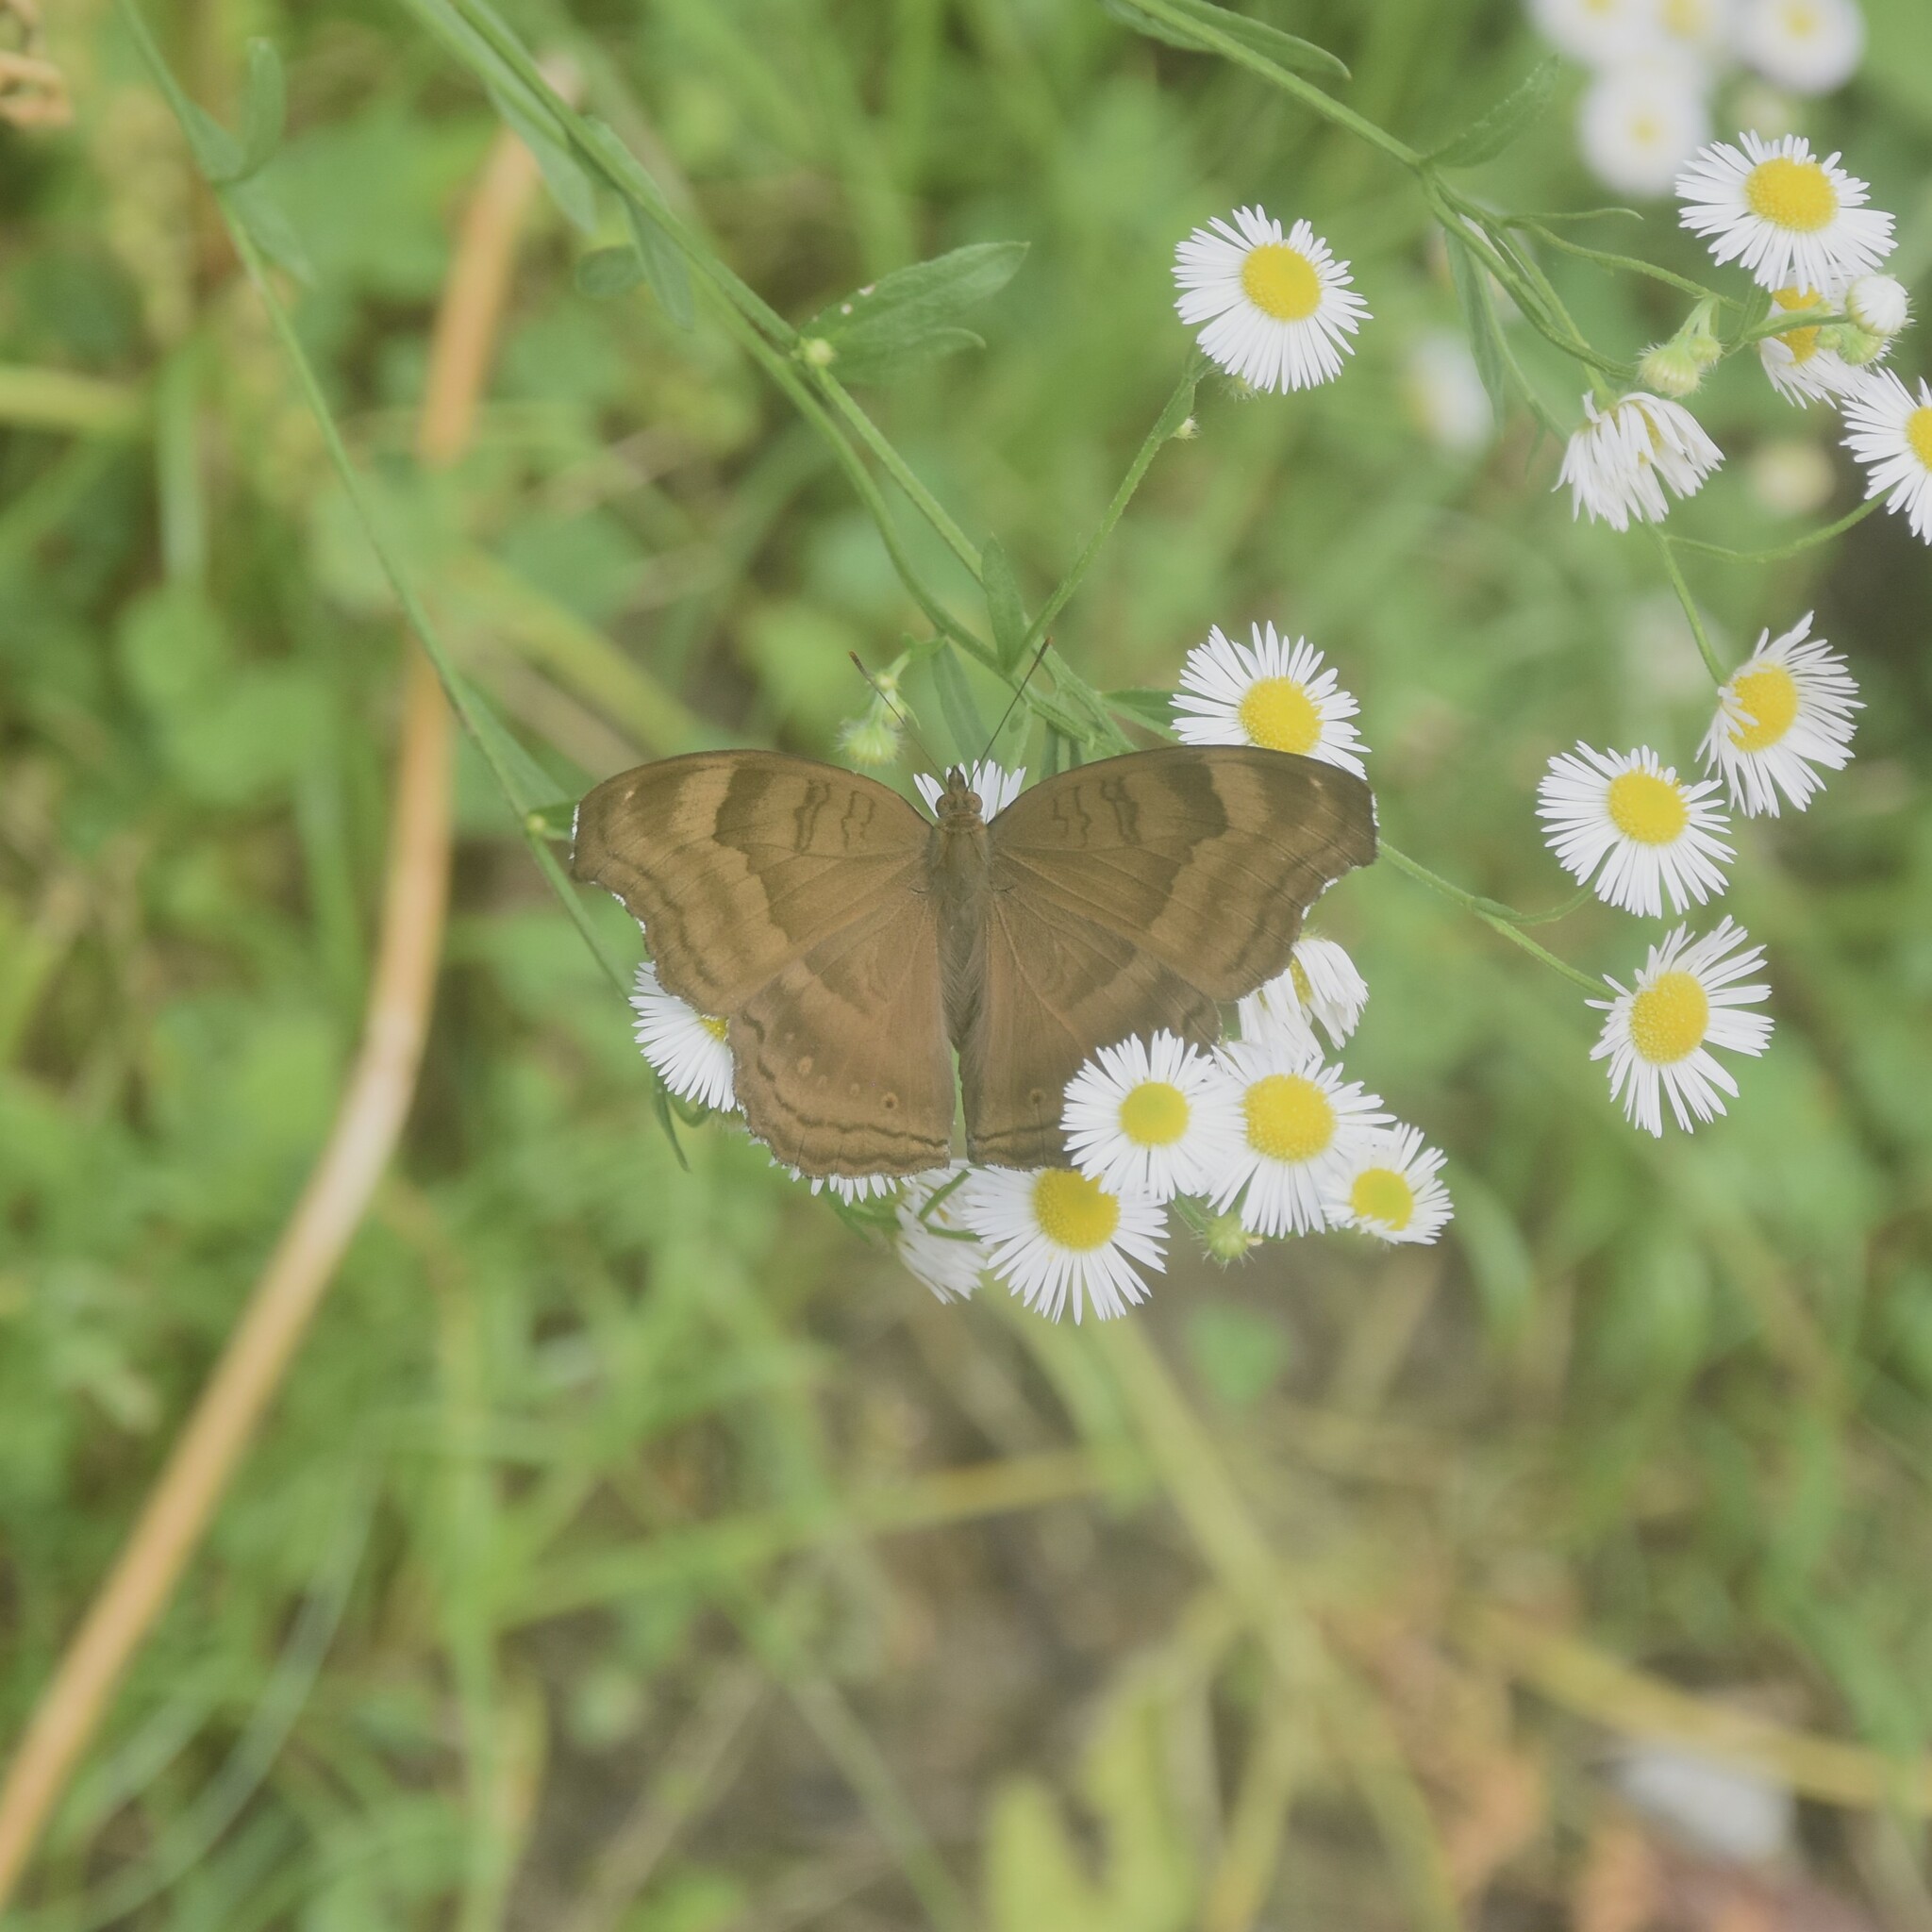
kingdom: Animalia
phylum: Arthropoda
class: Insecta
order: Lepidoptera
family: Nymphalidae
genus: Junonia
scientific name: Junonia iphita
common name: Chocolate pansy
